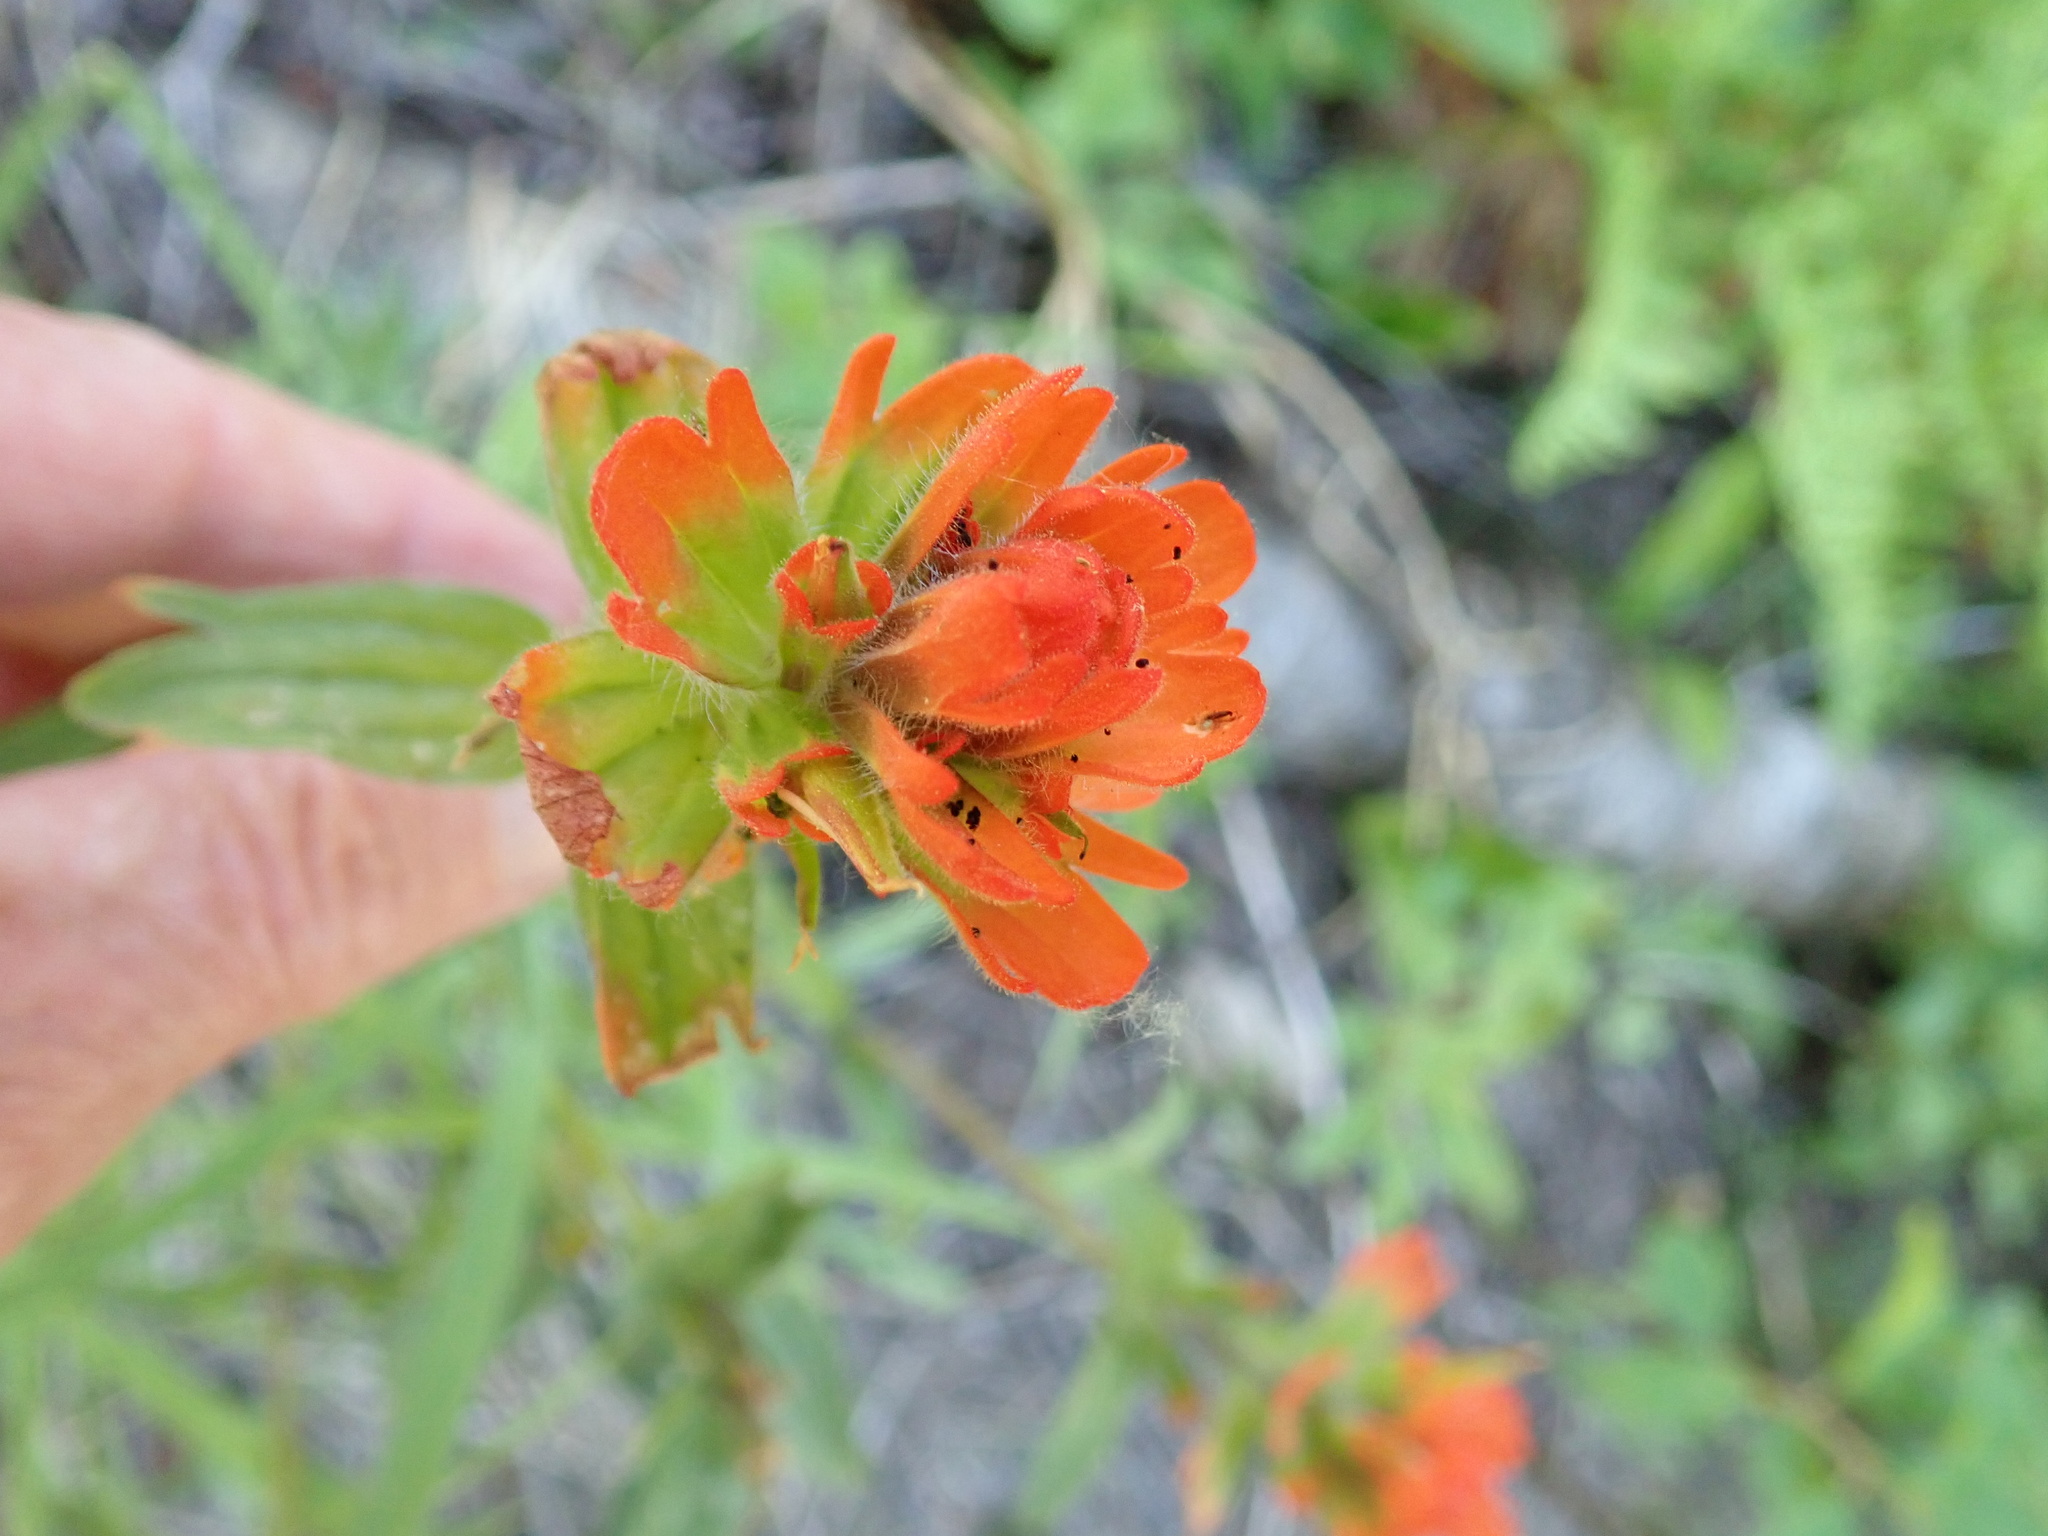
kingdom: Plantae
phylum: Tracheophyta
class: Magnoliopsida
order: Lamiales
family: Orobanchaceae
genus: Castilleja
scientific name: Castilleja hispida
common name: Bristly paintbrush
